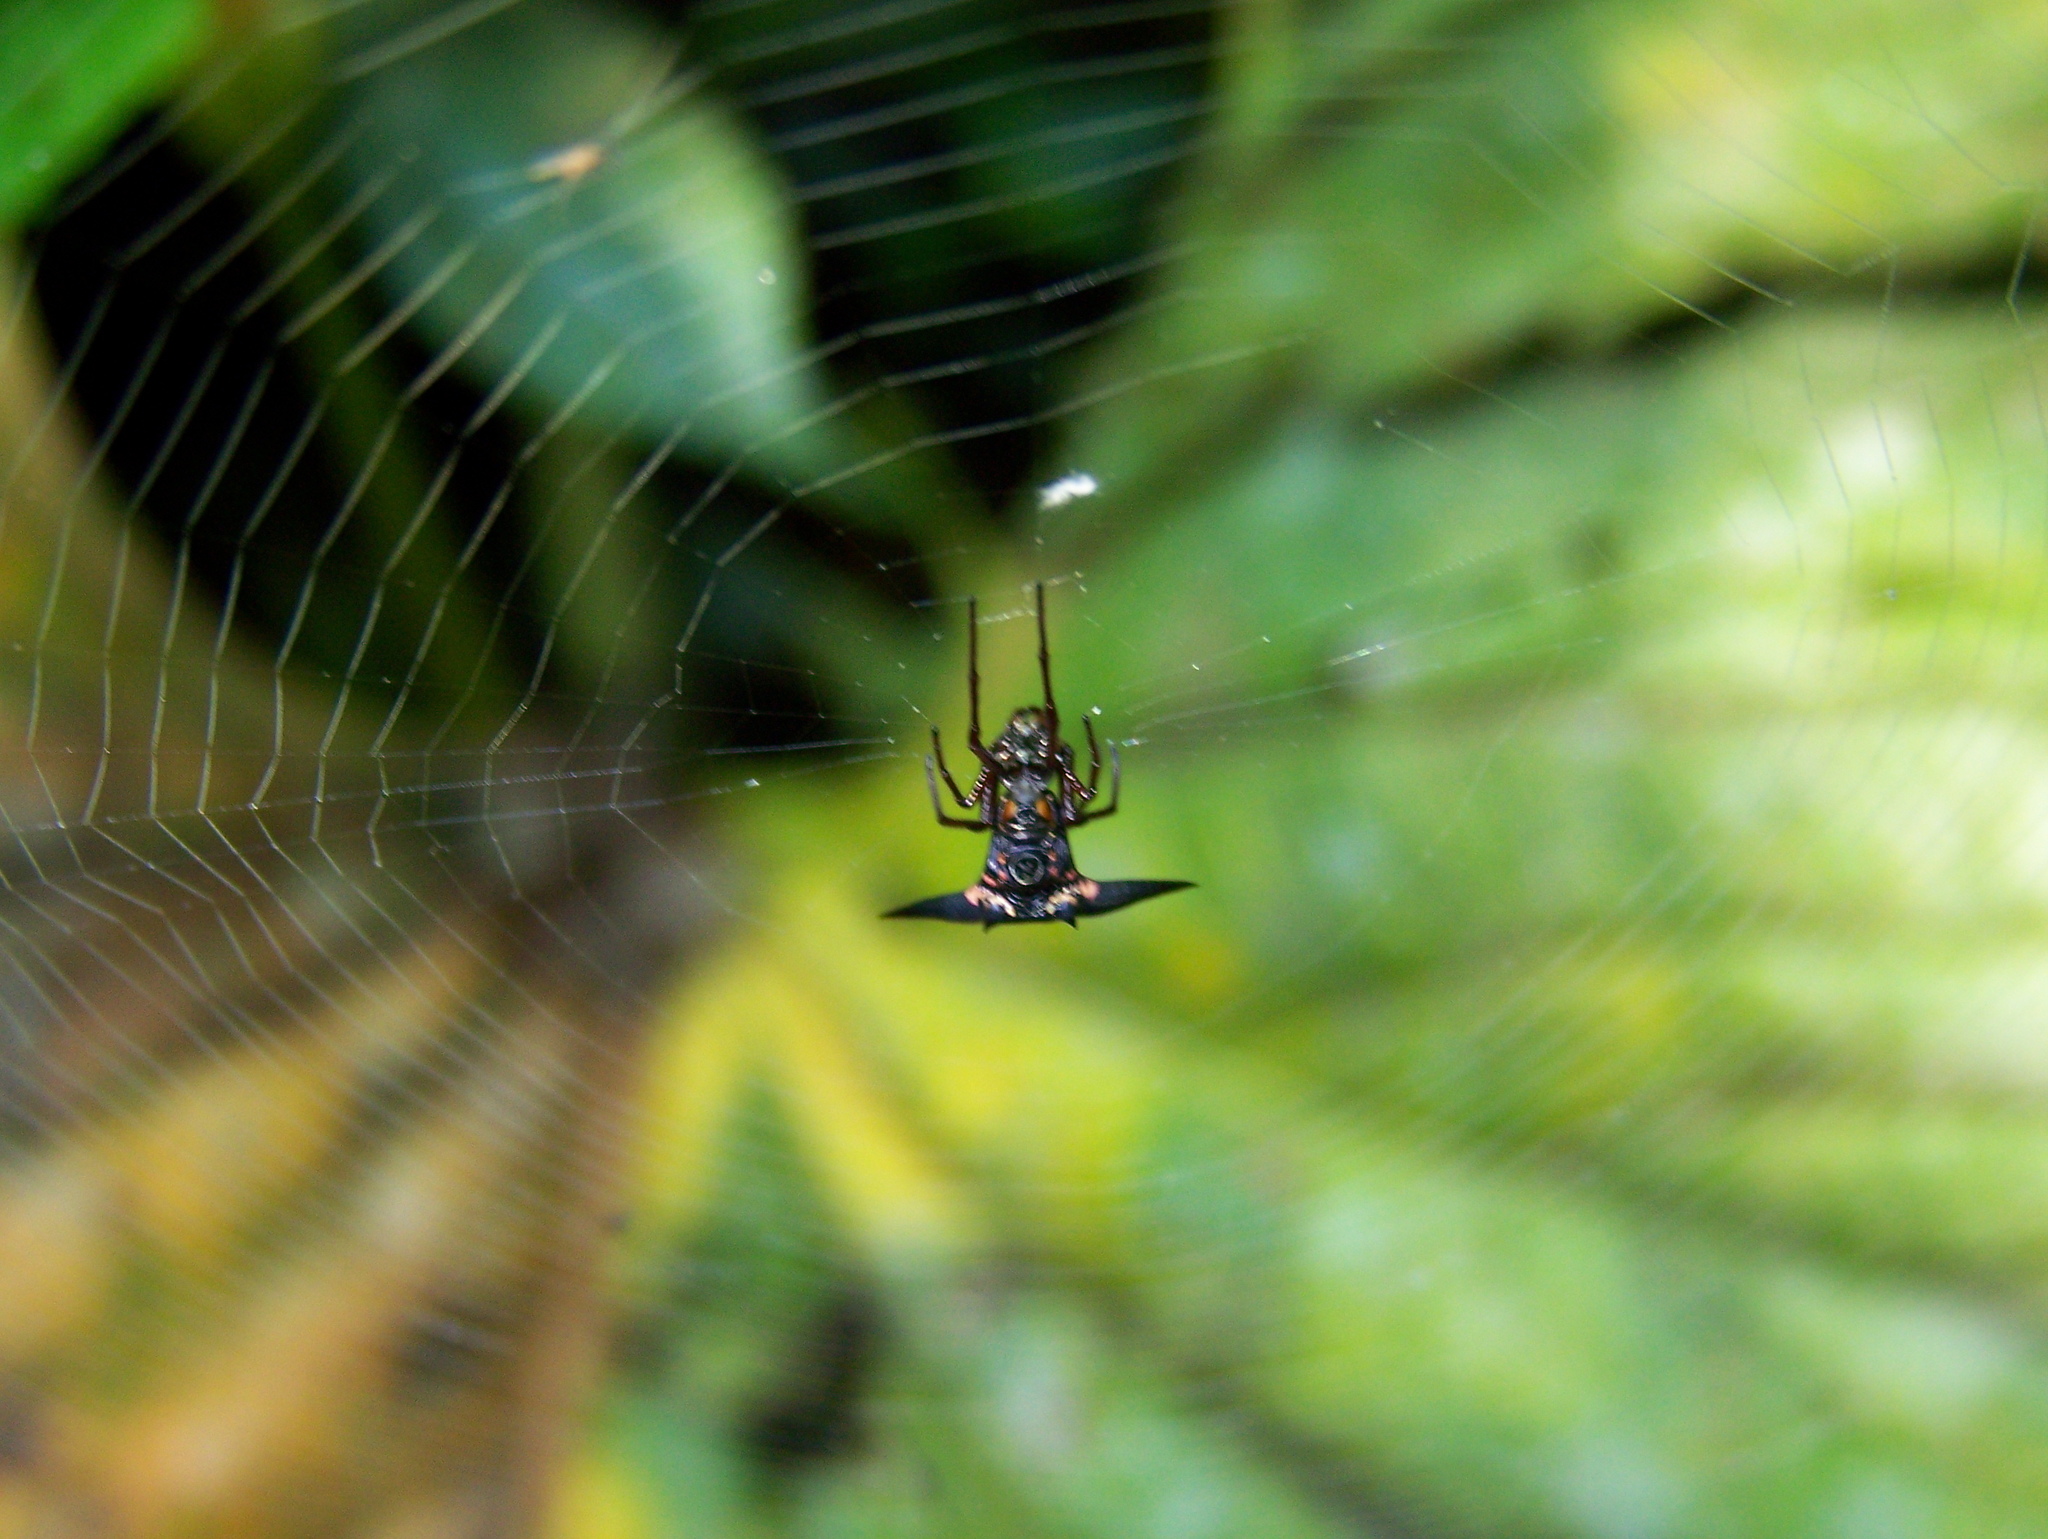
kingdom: Animalia
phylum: Arthropoda
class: Arachnida
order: Araneae
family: Araneidae
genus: Micrathena
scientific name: Micrathena pilaton
